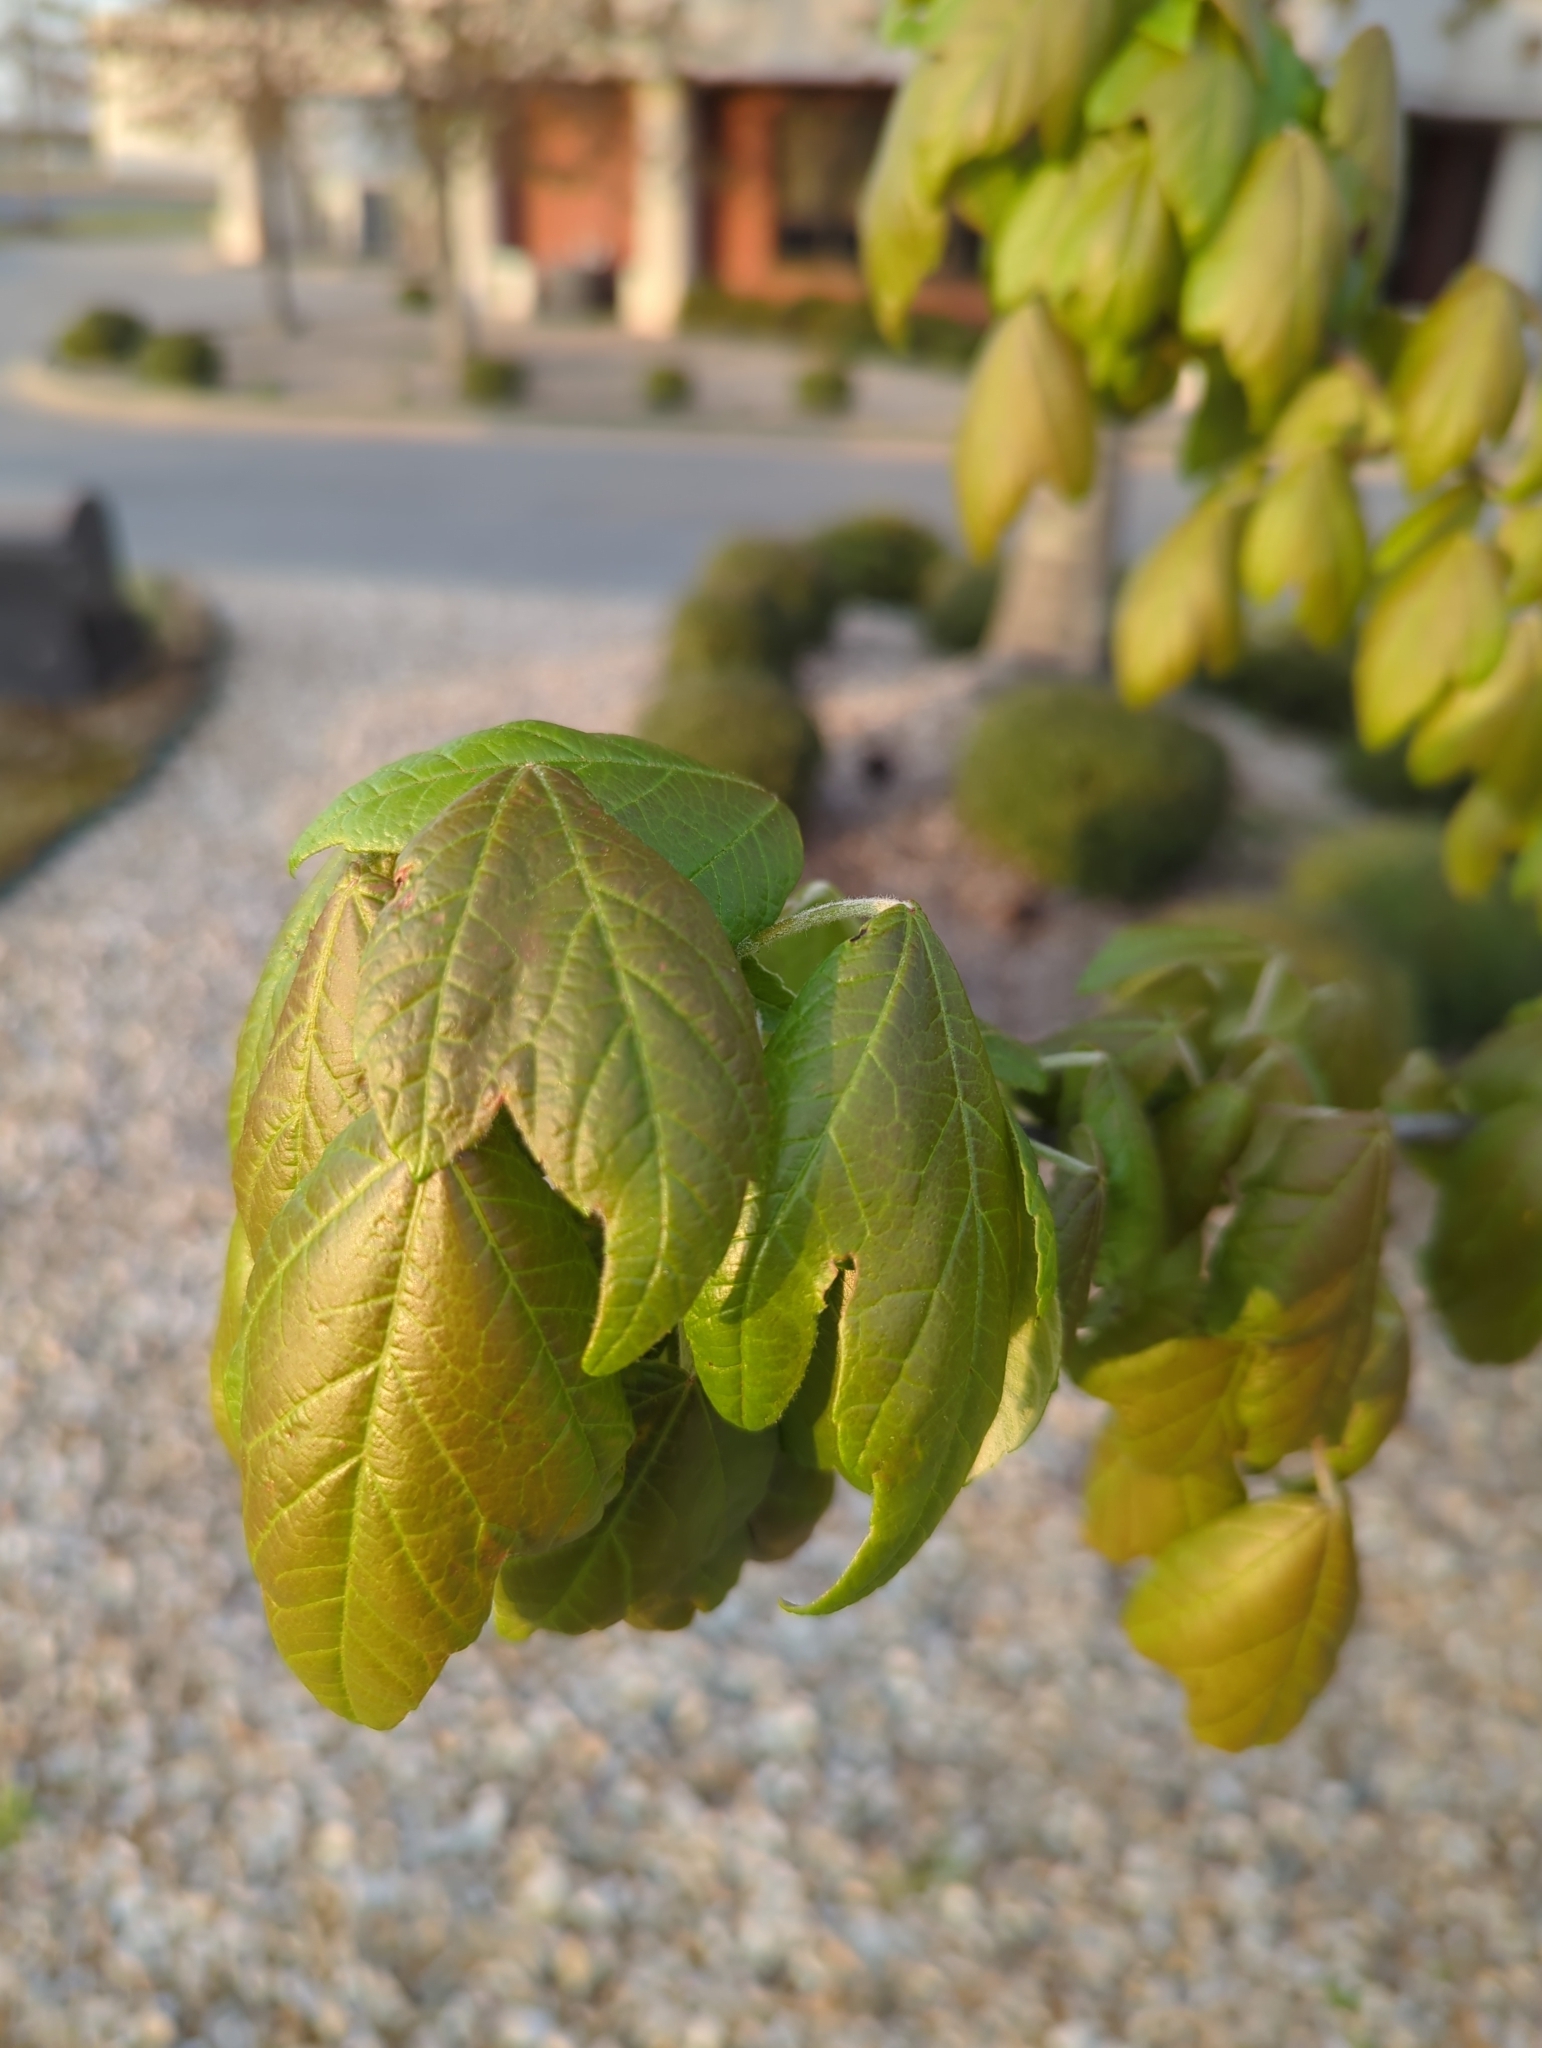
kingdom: Plantae
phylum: Tracheophyta
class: Magnoliopsida
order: Sapindales
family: Sapindaceae
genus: Acer
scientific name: Acer negundo
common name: Ashleaf maple
